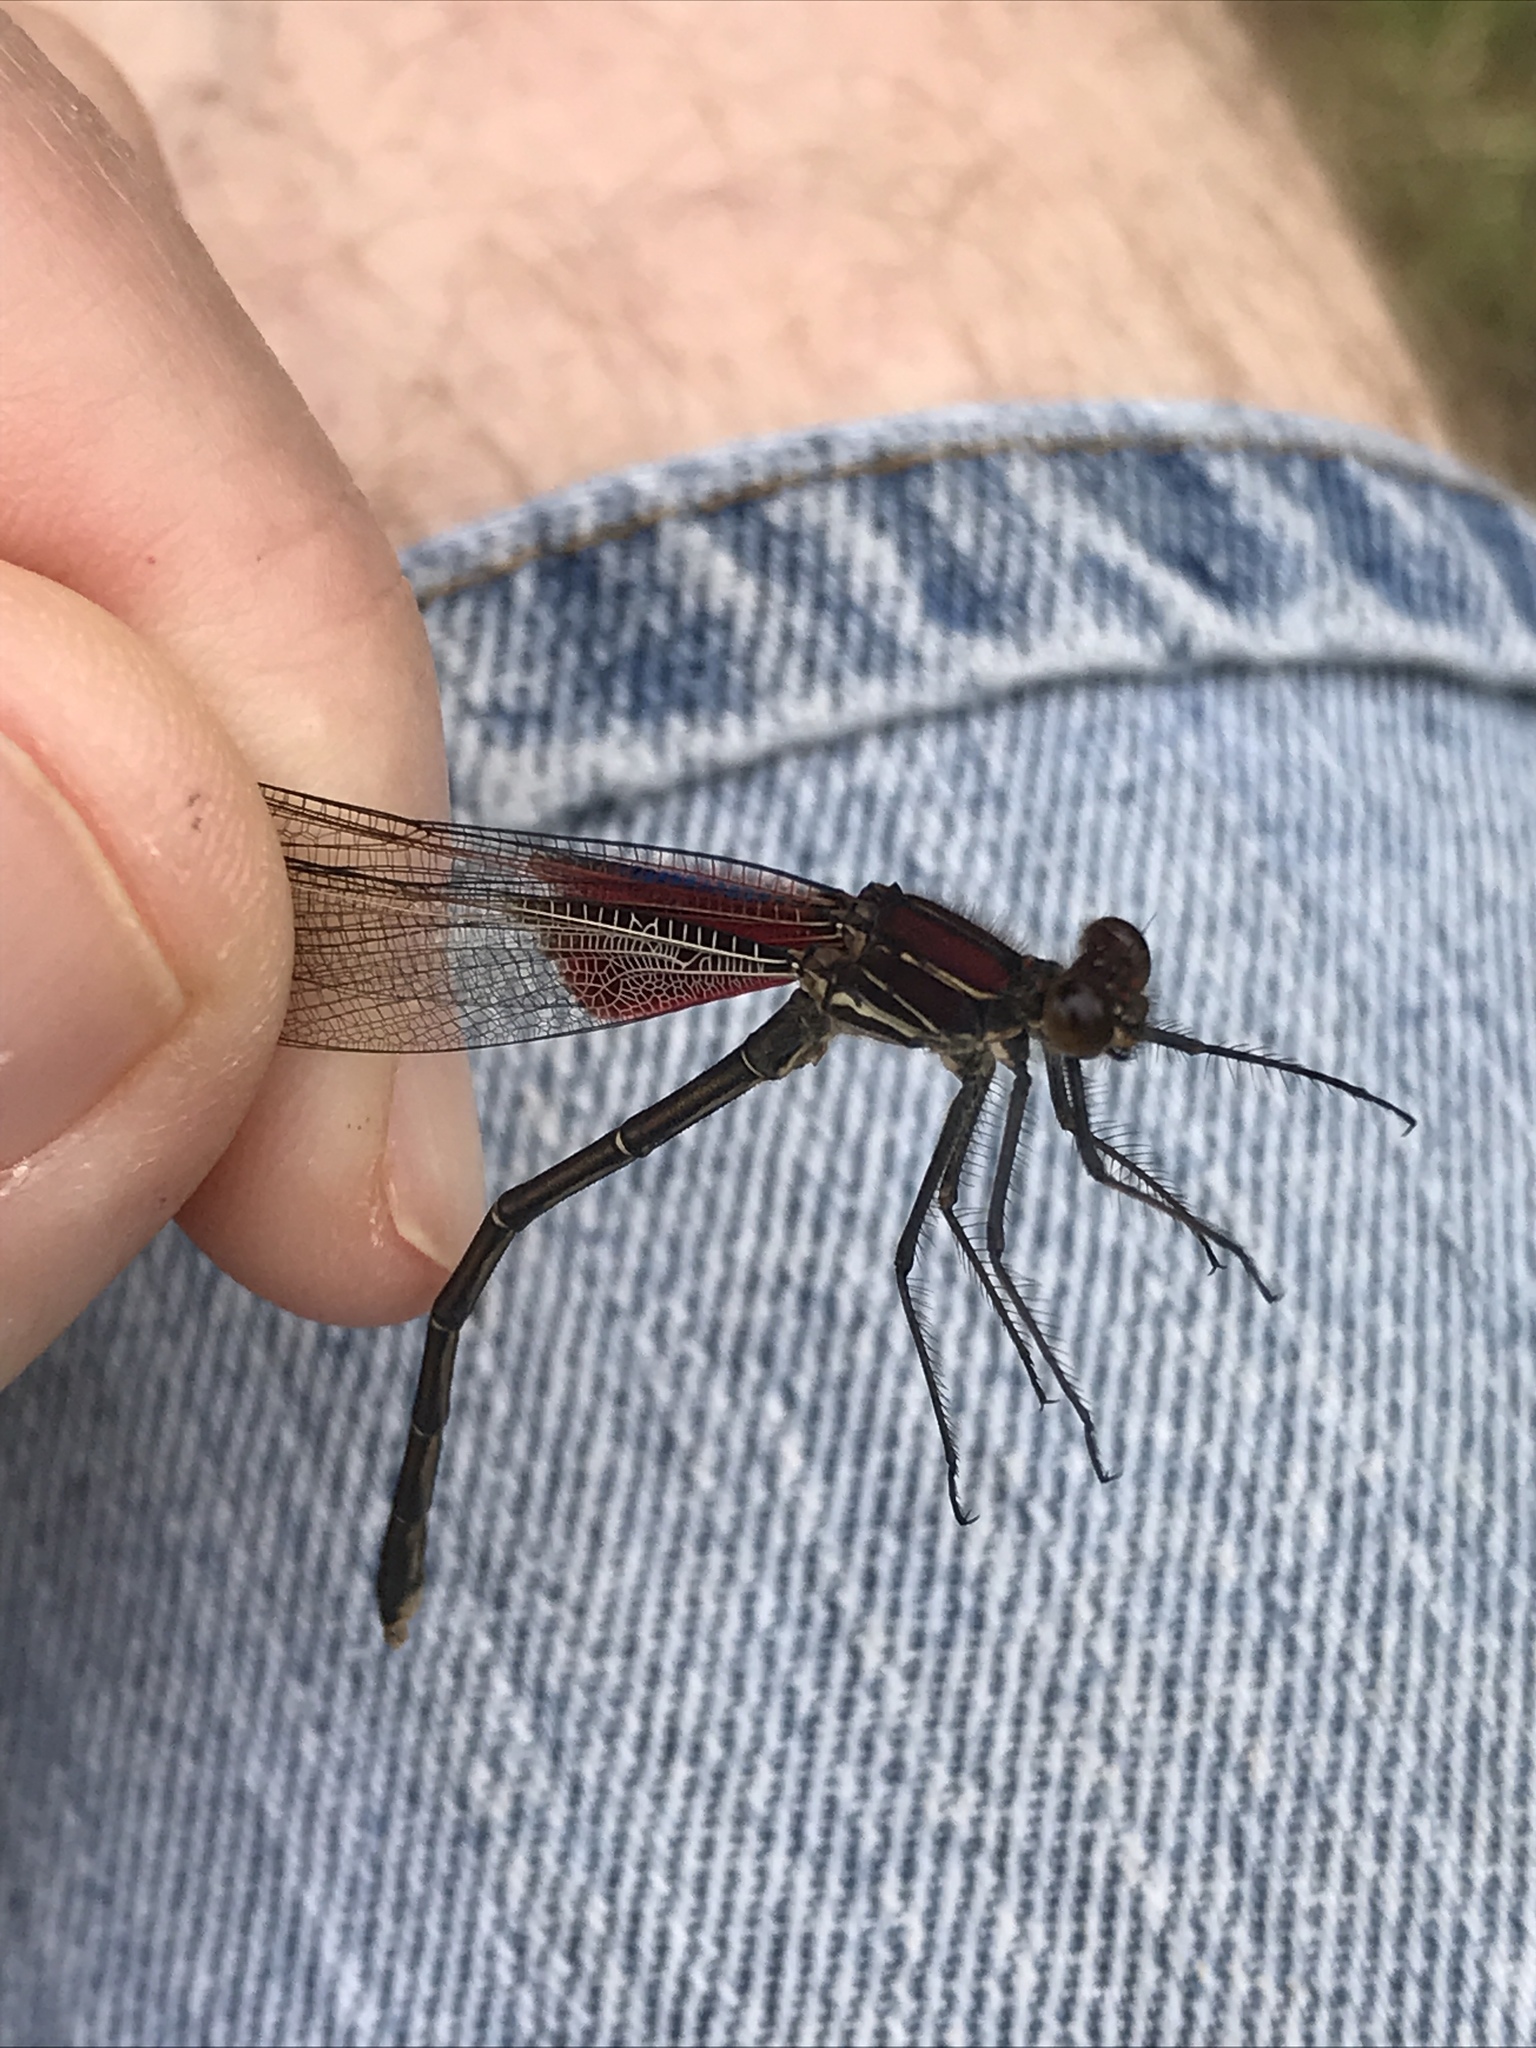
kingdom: Animalia
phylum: Arthropoda
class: Insecta
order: Odonata
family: Calopterygidae
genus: Hetaerina
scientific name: Hetaerina americana
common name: American rubyspot
